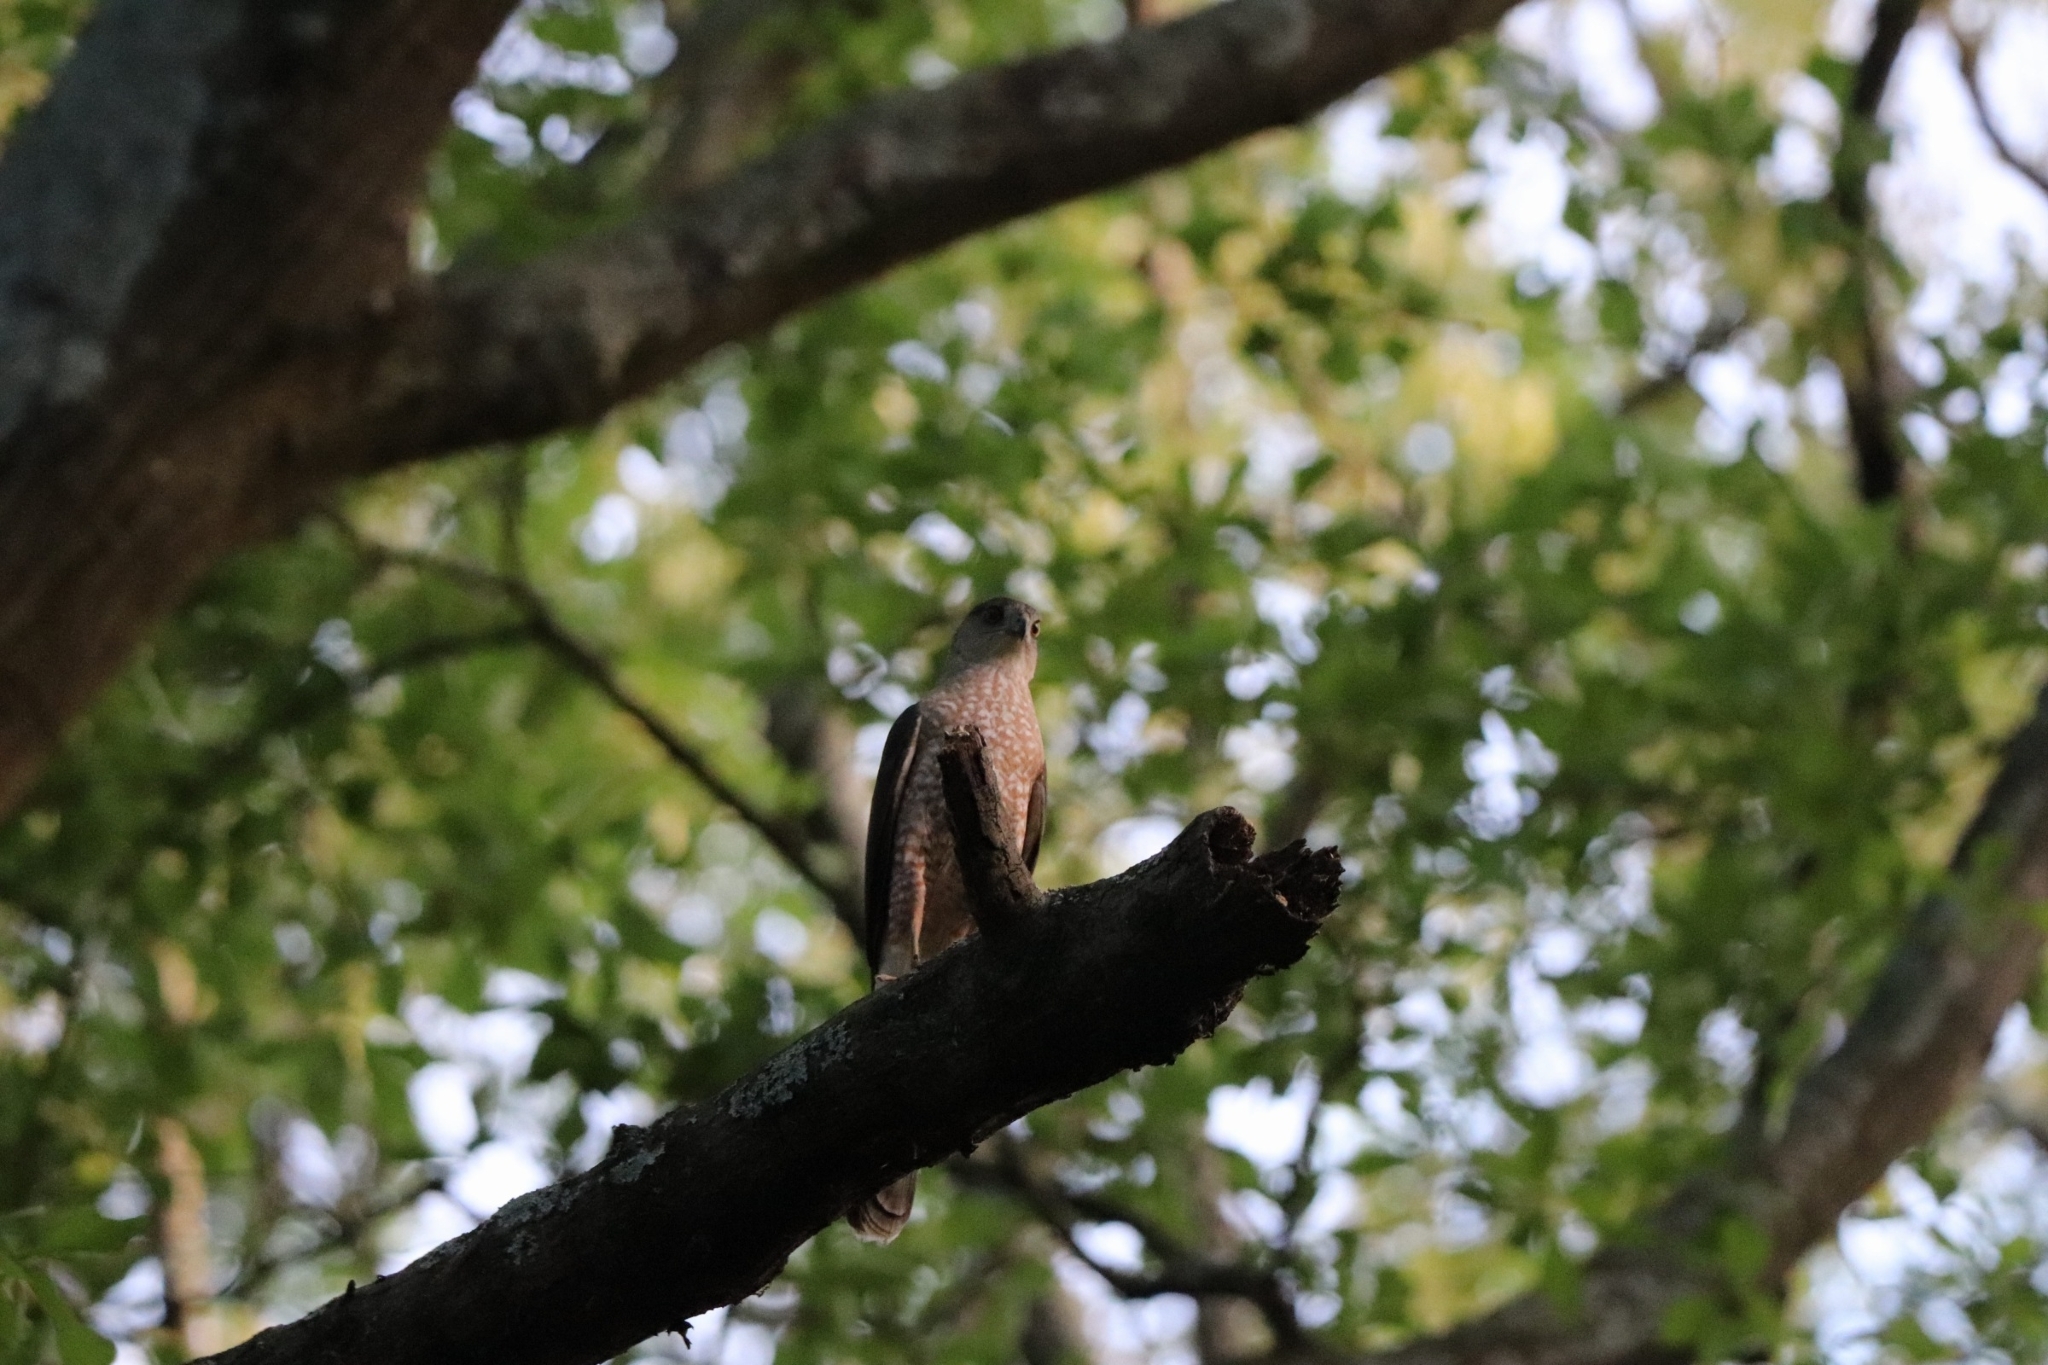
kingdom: Animalia
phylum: Chordata
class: Aves
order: Accipitriformes
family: Accipitridae
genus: Accipiter
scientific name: Accipiter cooperii
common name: Cooper's hawk
